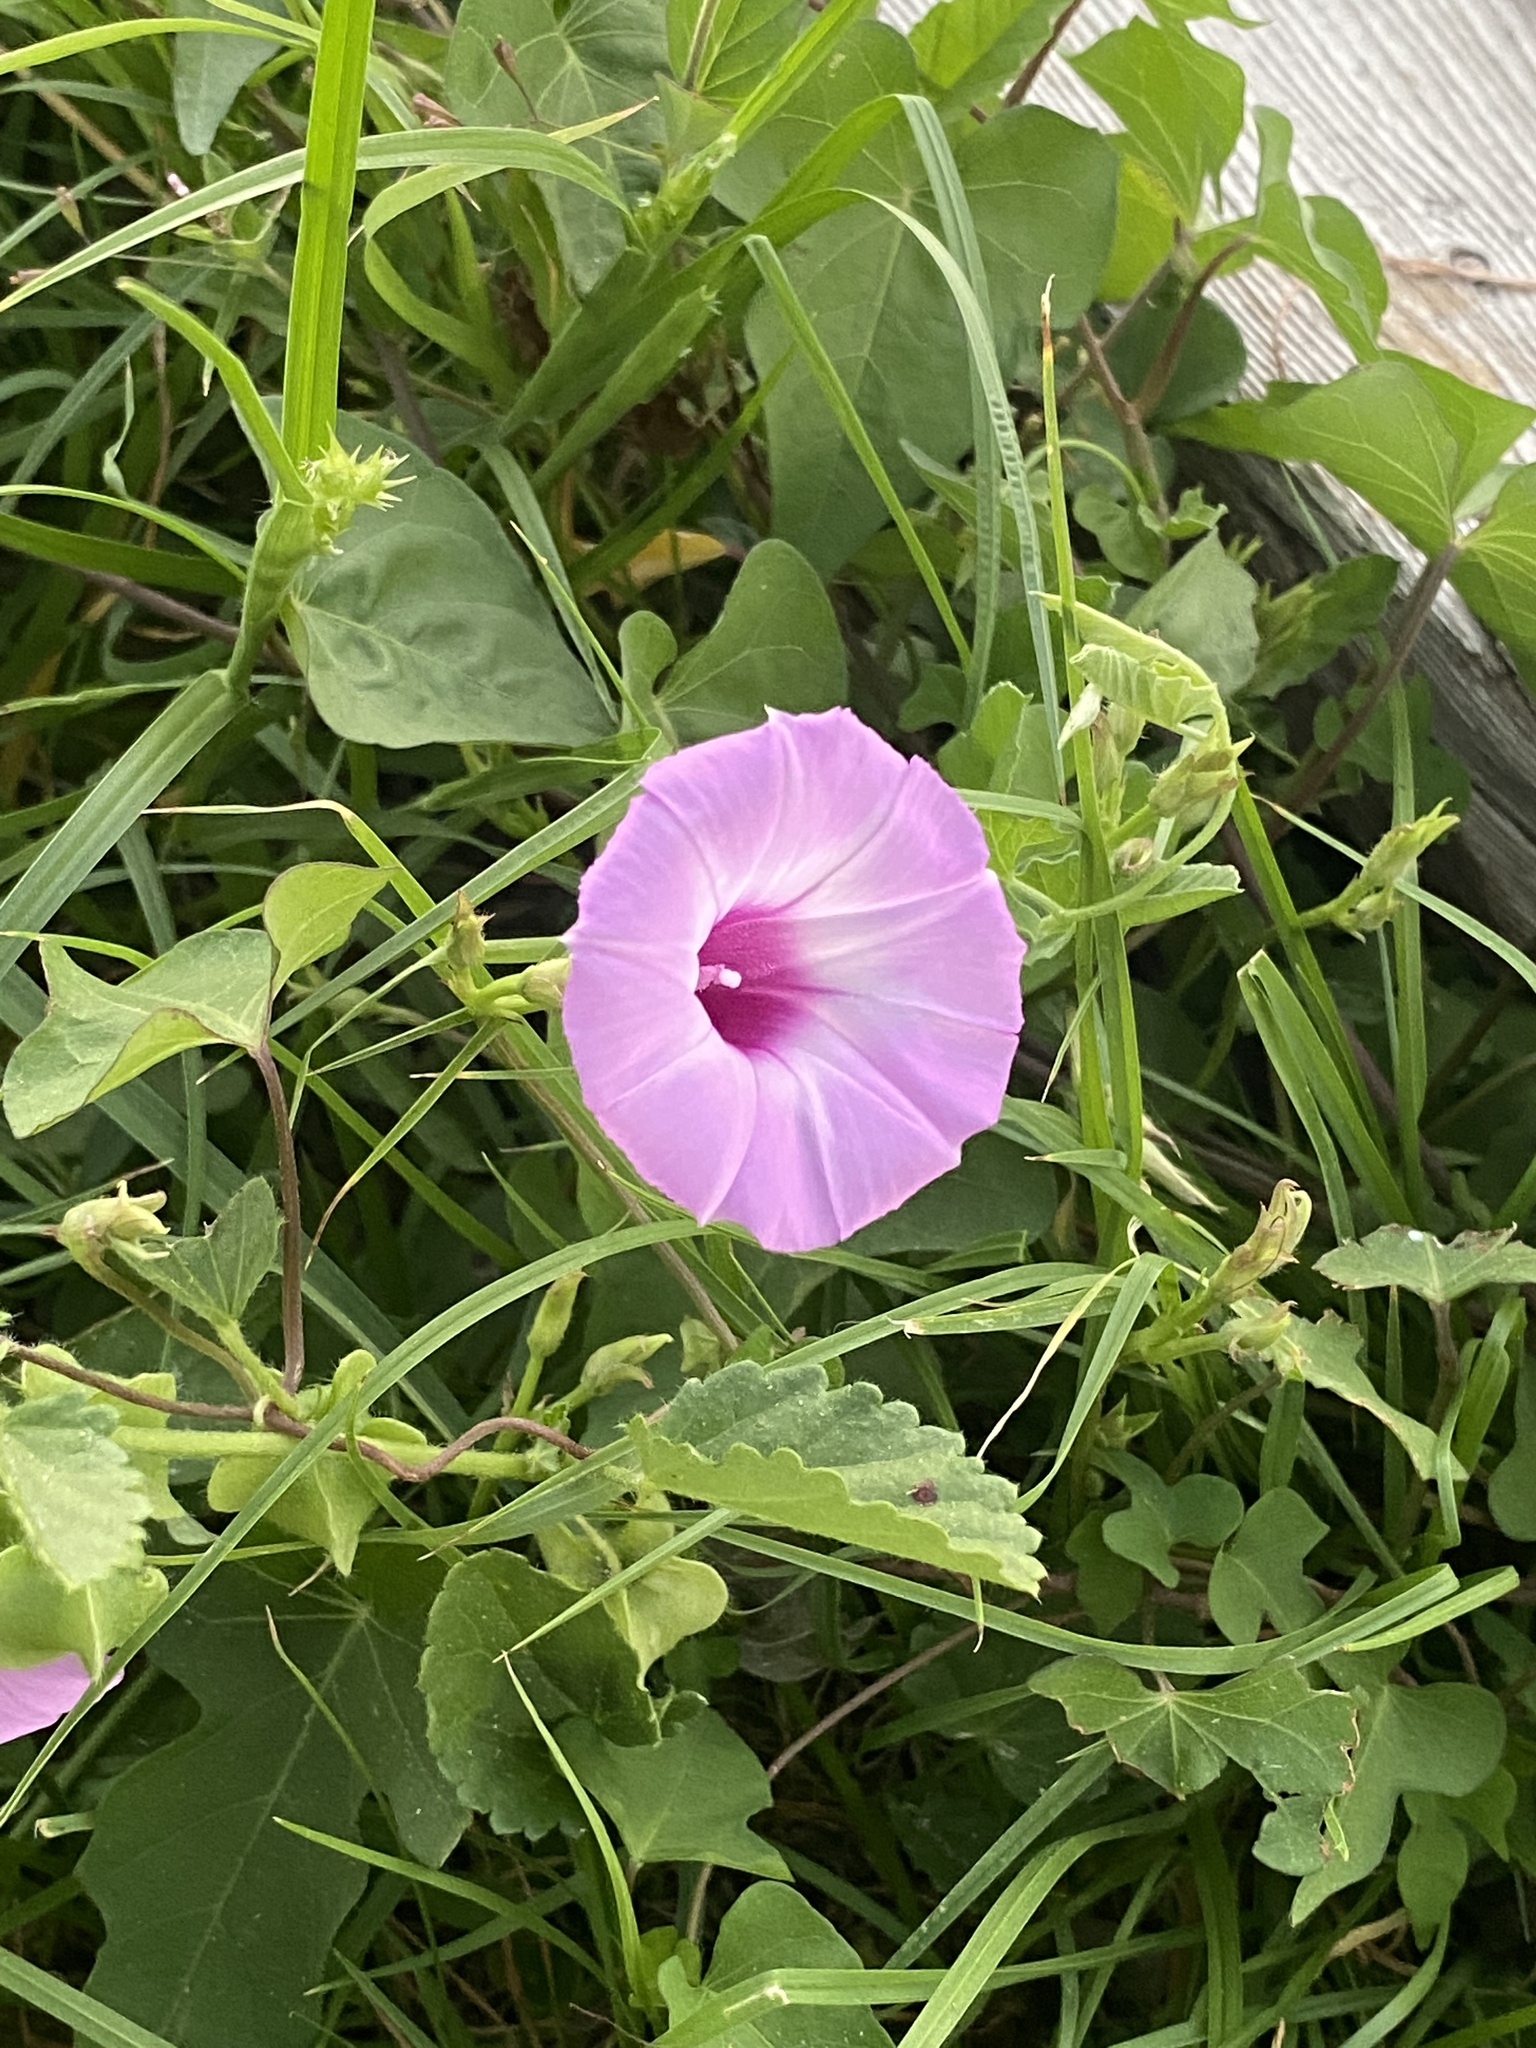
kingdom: Plantae
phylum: Tracheophyta
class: Magnoliopsida
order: Solanales
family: Convolvulaceae
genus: Ipomoea
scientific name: Ipomoea cordatotriloba
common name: Cotton morning glory
